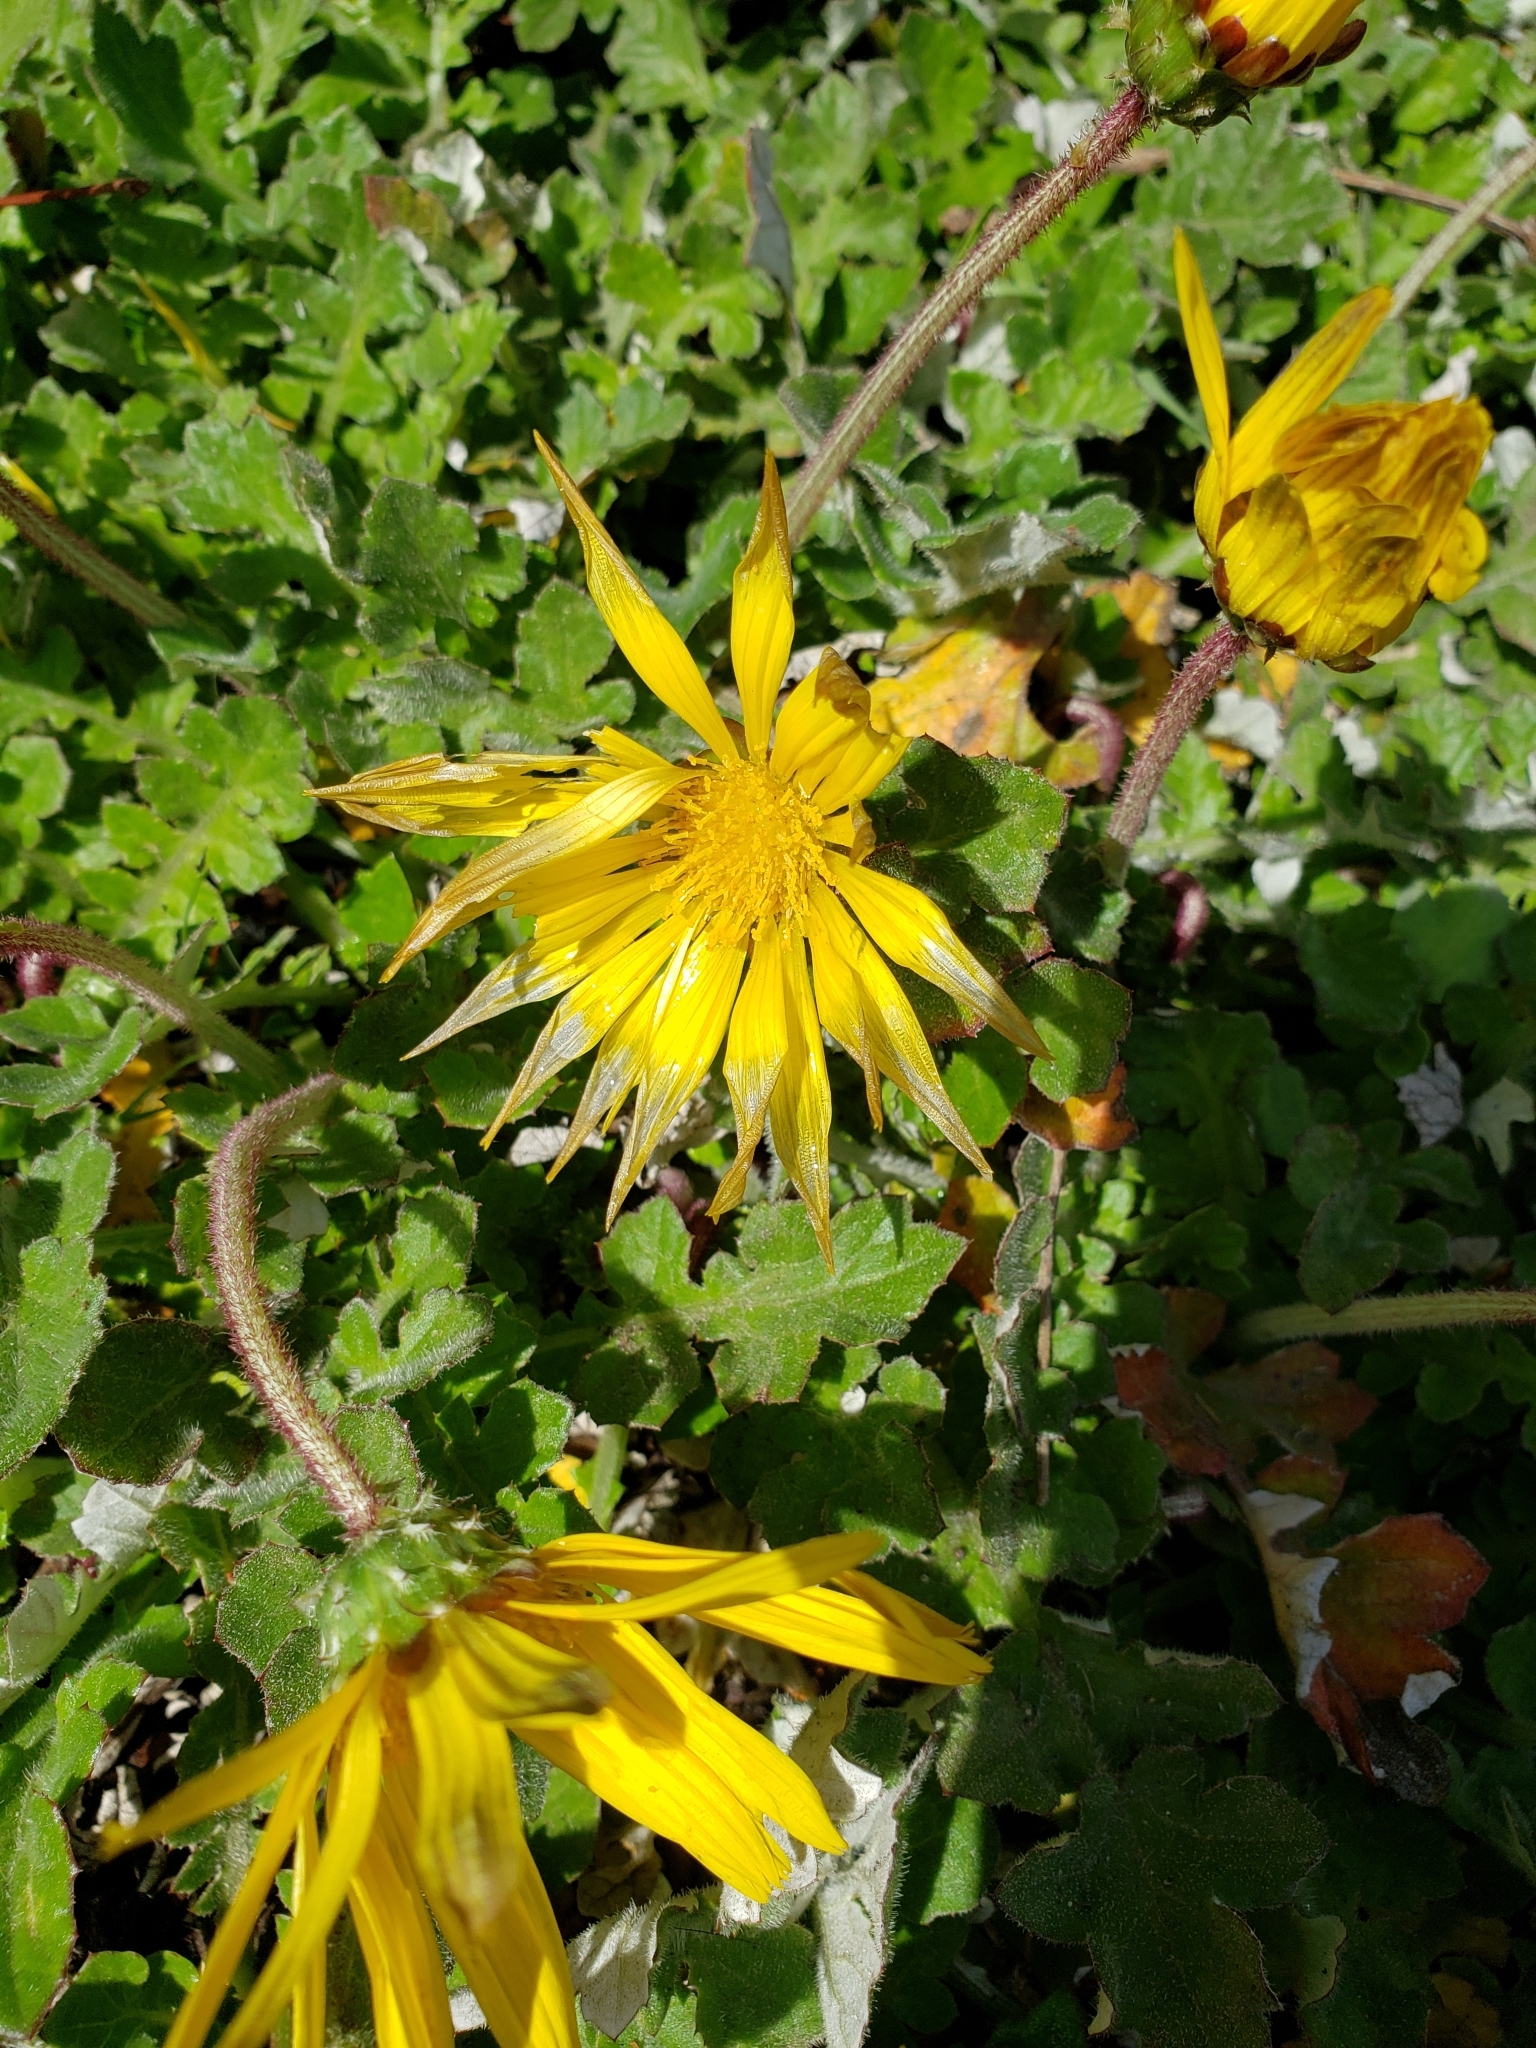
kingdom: Plantae
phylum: Tracheophyta
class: Magnoliopsida
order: Asterales
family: Asteraceae
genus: Arctotheca
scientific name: Arctotheca prostrata
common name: Capeweed
